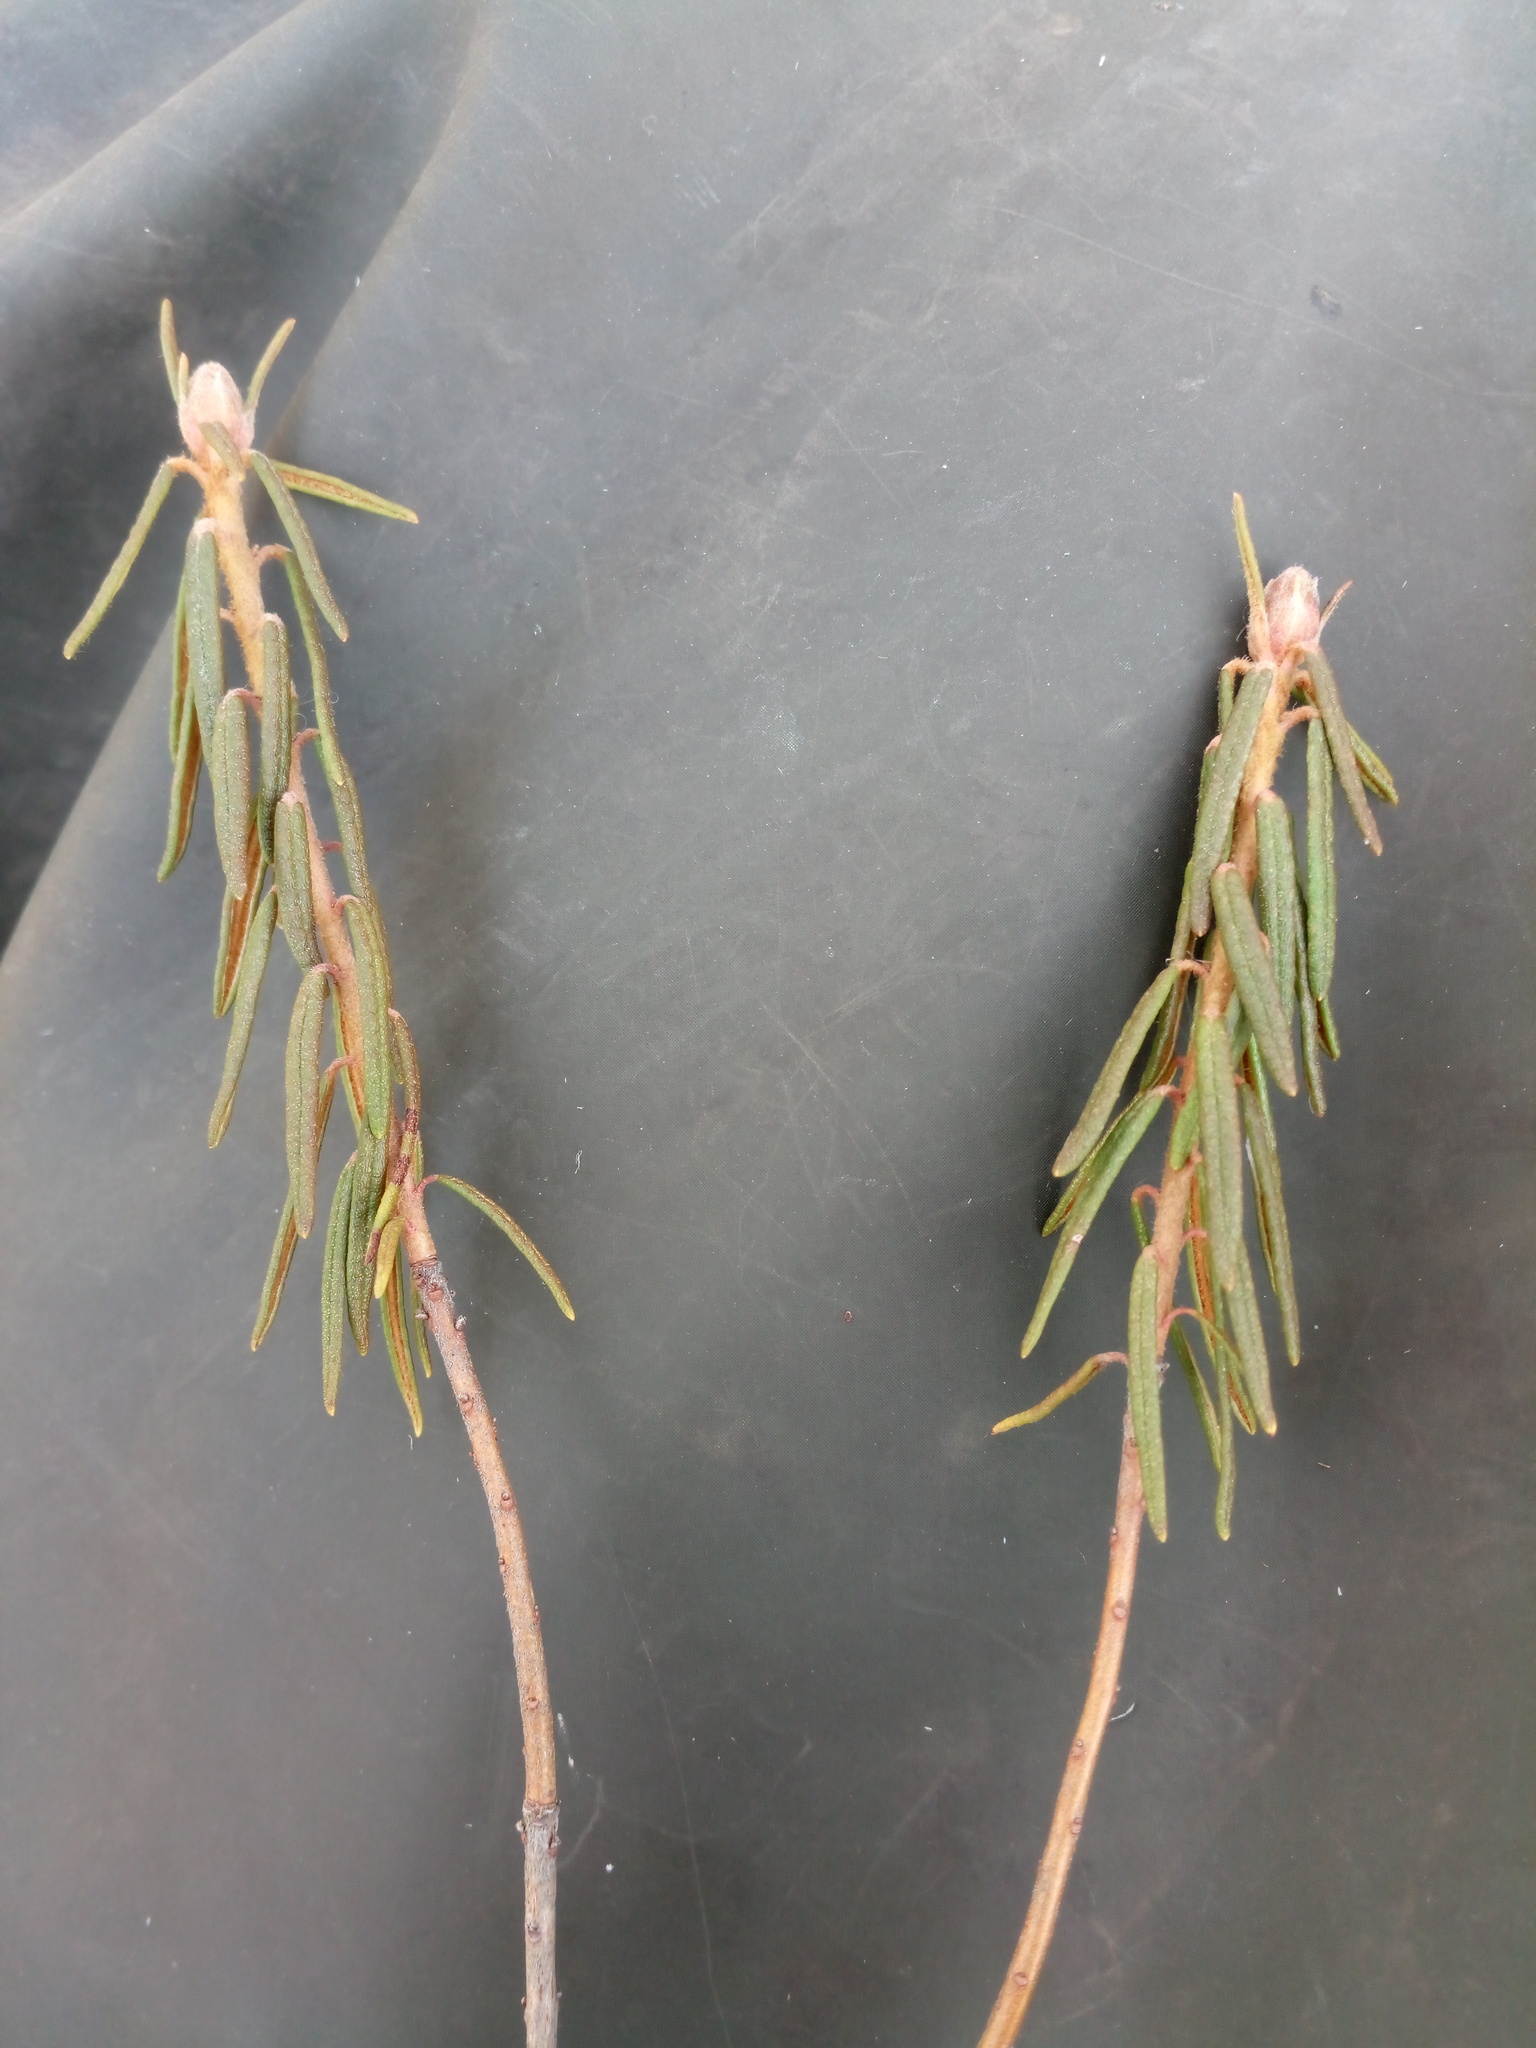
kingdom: Plantae
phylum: Tracheophyta
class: Magnoliopsida
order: Ericales
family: Ericaceae
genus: Rhododendron
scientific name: Rhododendron tomentosum
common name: Marsh labrador tea
